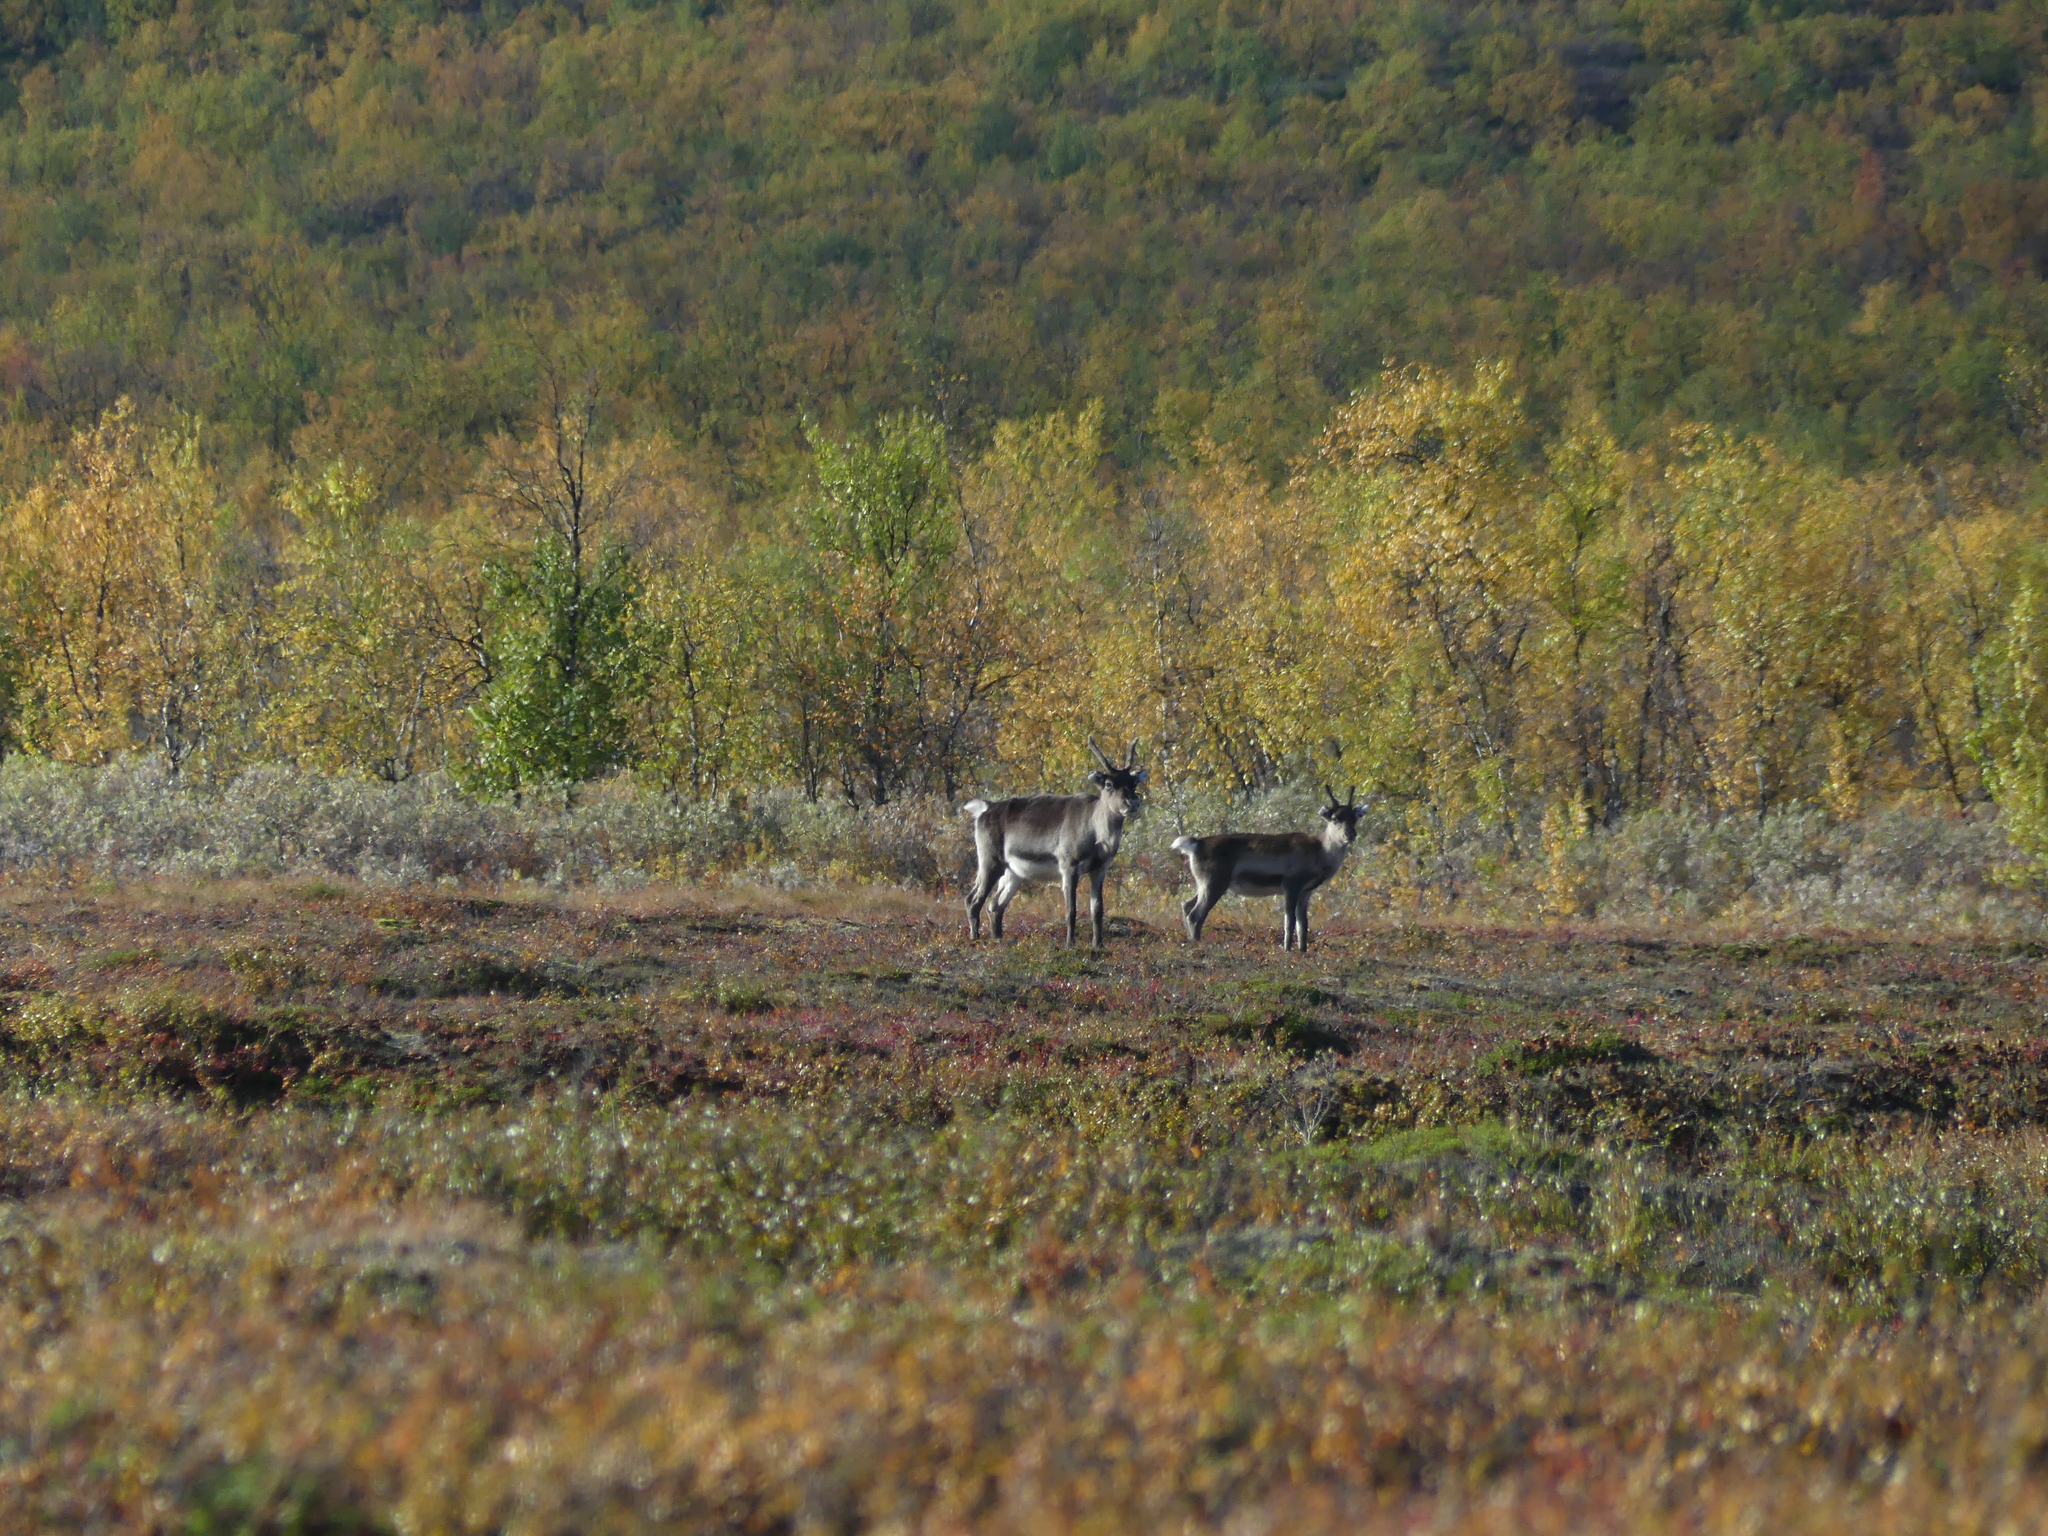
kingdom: Animalia
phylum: Chordata
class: Mammalia
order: Artiodactyla
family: Cervidae
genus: Rangifer
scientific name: Rangifer tarandus
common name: Reindeer
